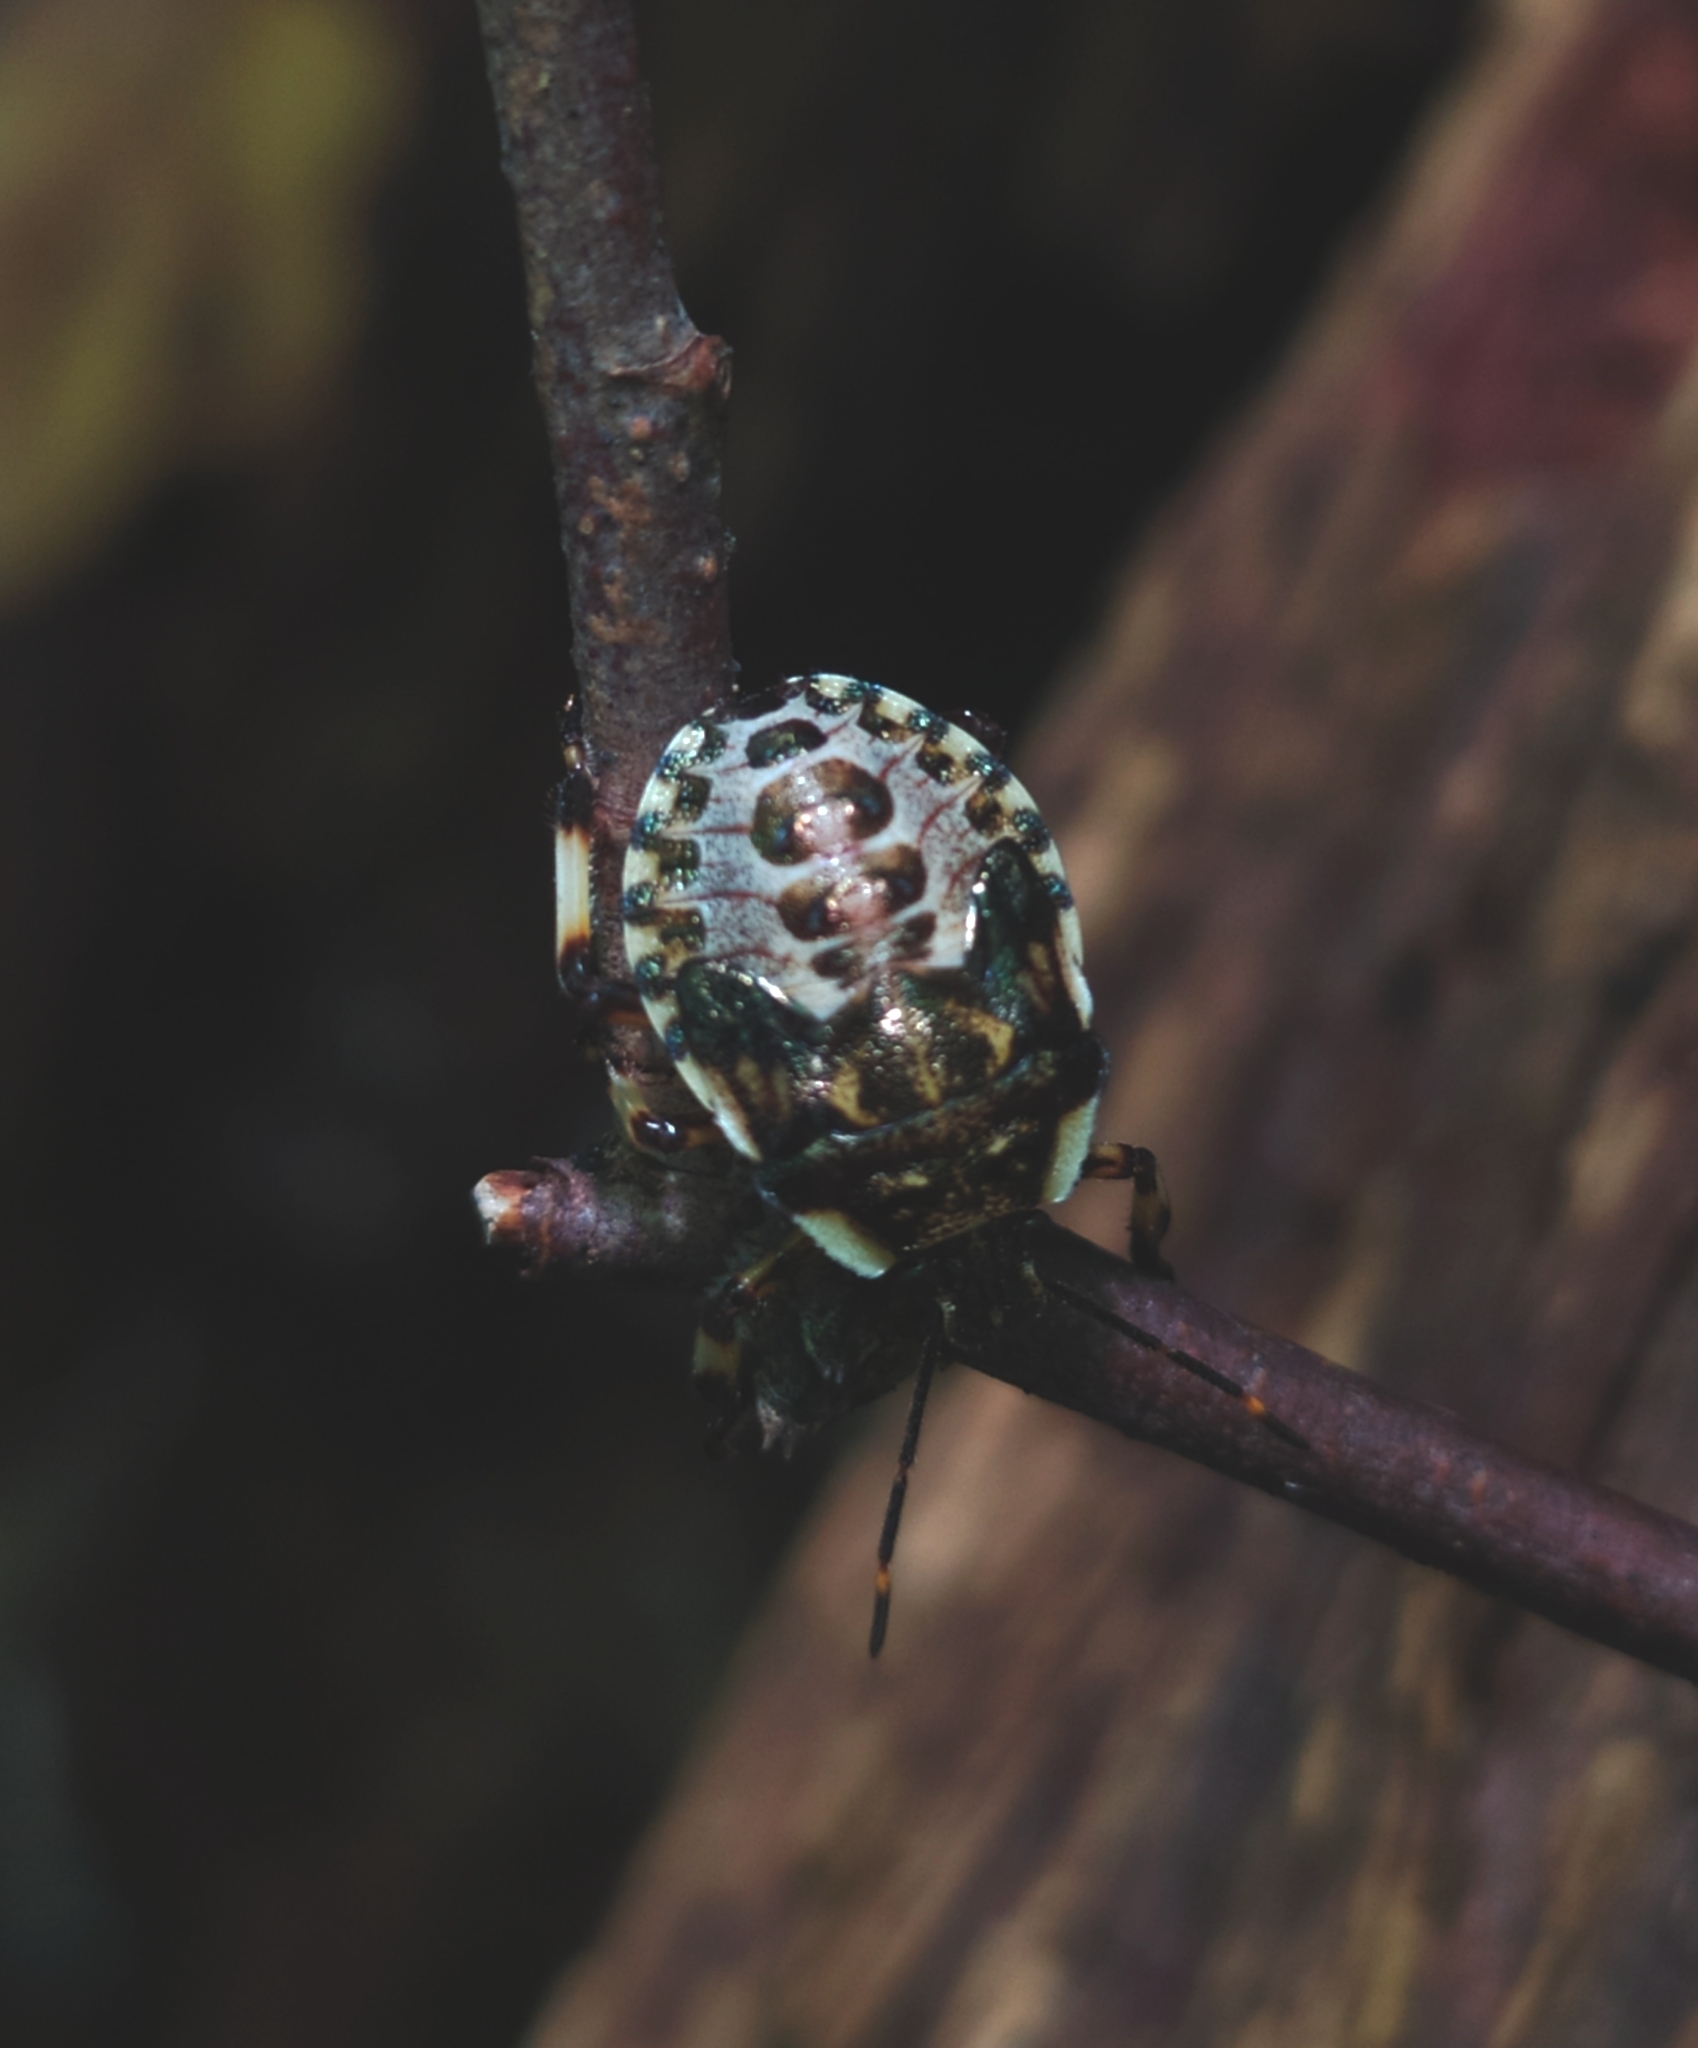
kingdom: Animalia
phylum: Arthropoda
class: Insecta
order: Hemiptera
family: Pentatomidae
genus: Pinthaeus
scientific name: Pinthaeus sanguinipes
